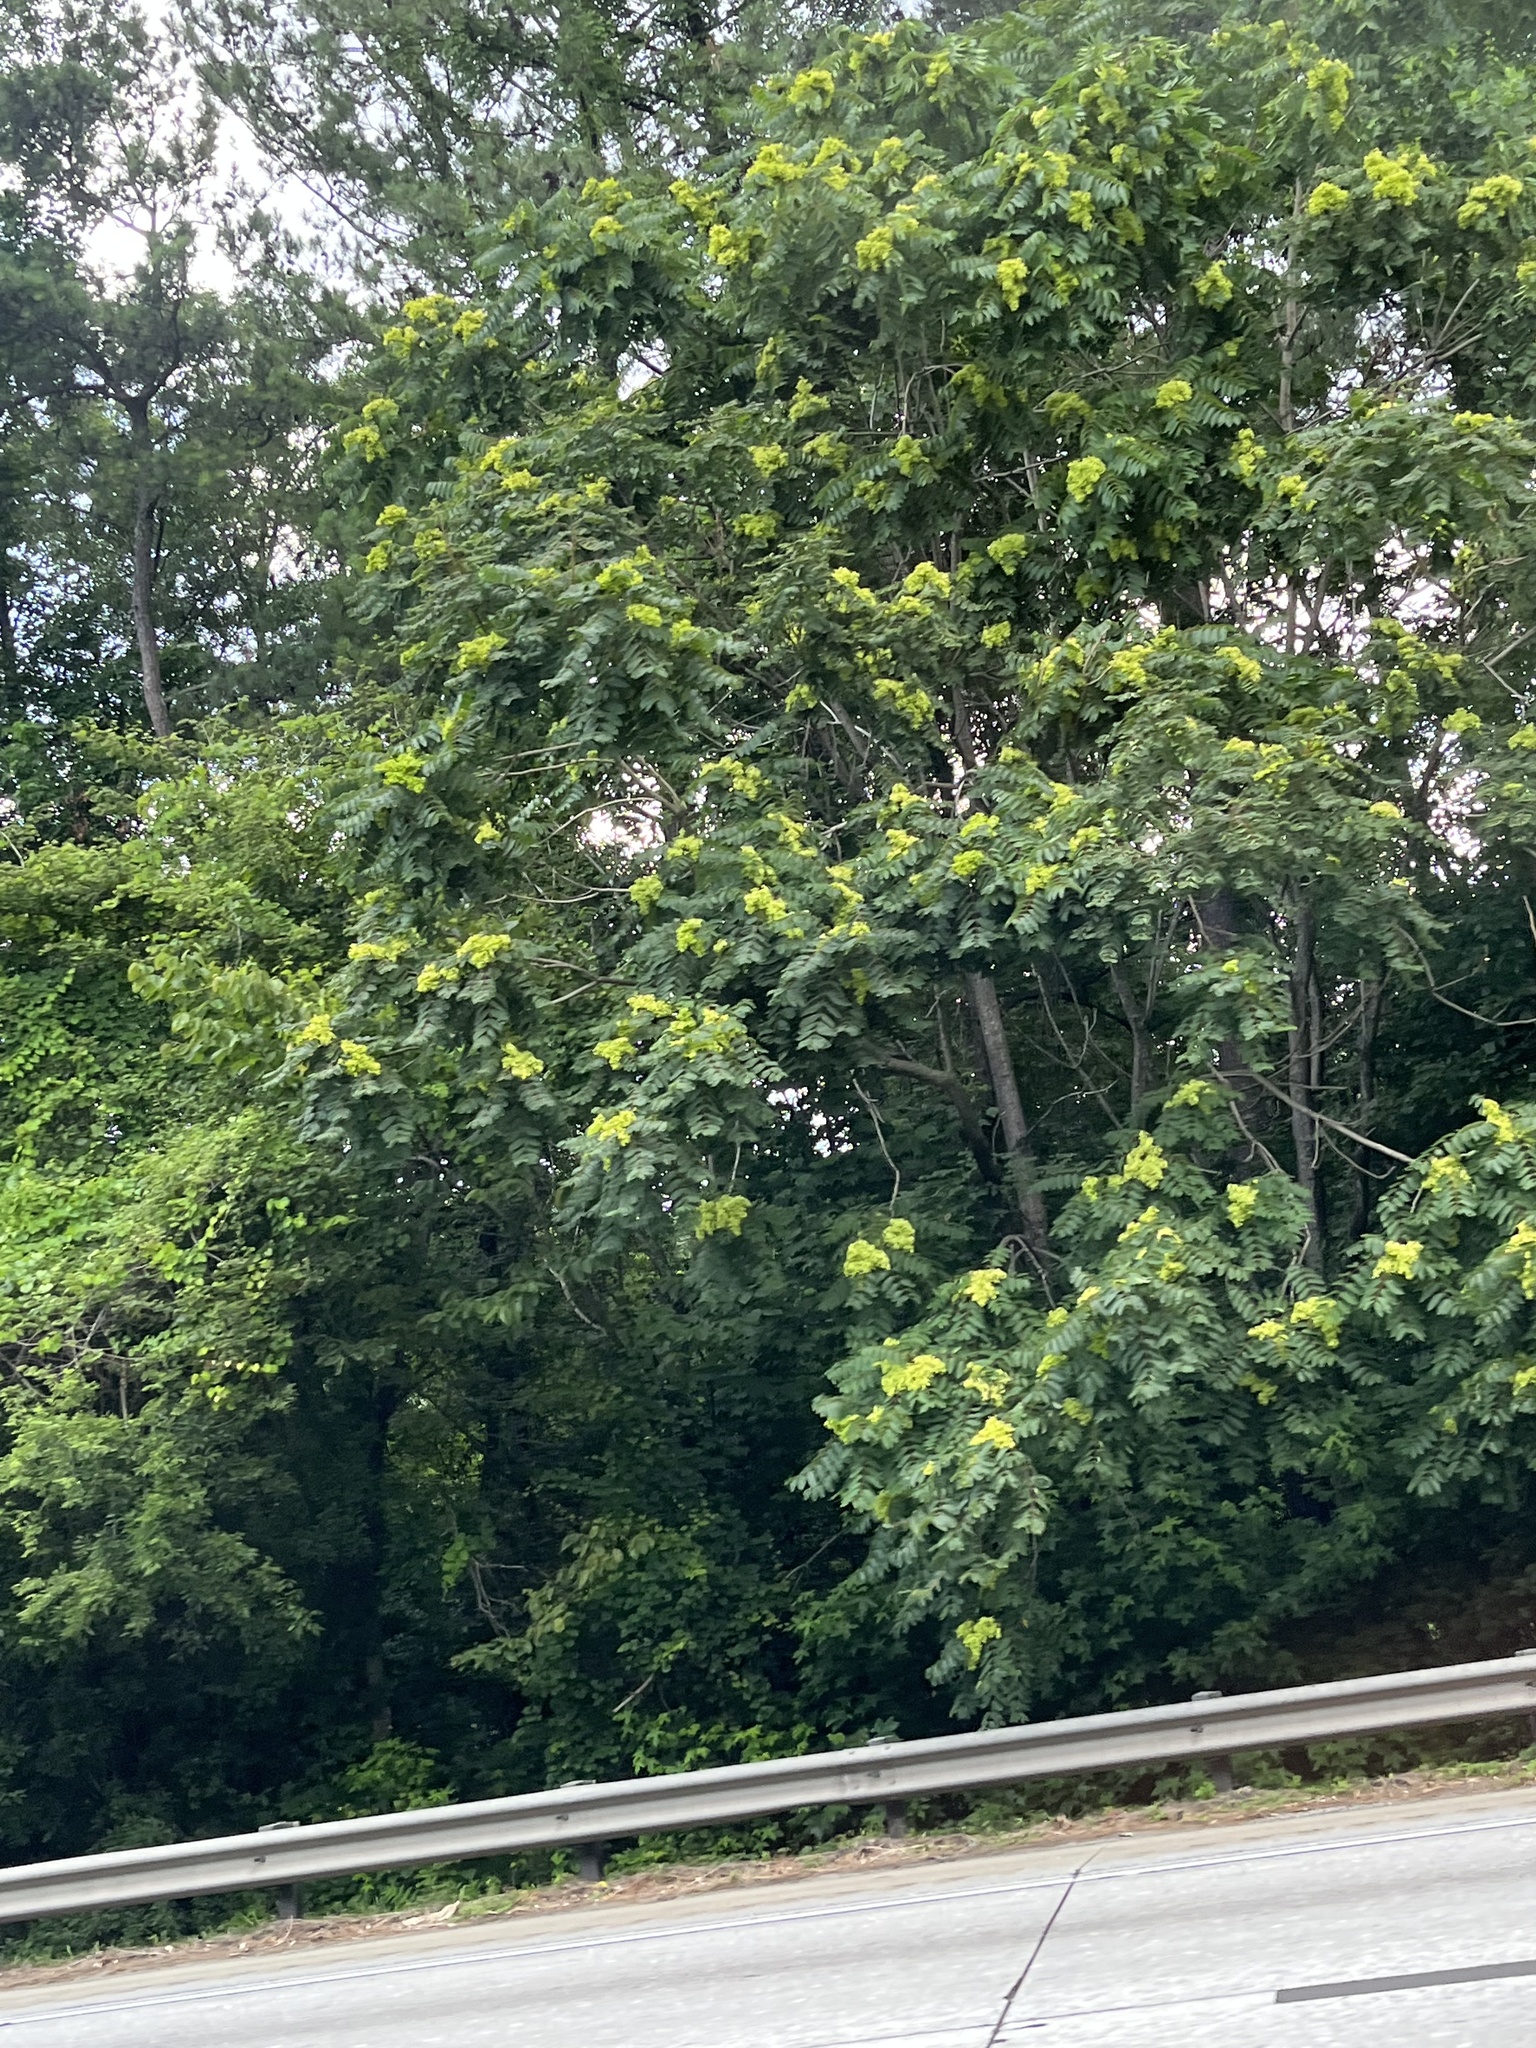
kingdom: Plantae
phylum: Tracheophyta
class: Magnoliopsida
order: Sapindales
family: Simaroubaceae
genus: Ailanthus
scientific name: Ailanthus altissima
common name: Tree-of-heaven
